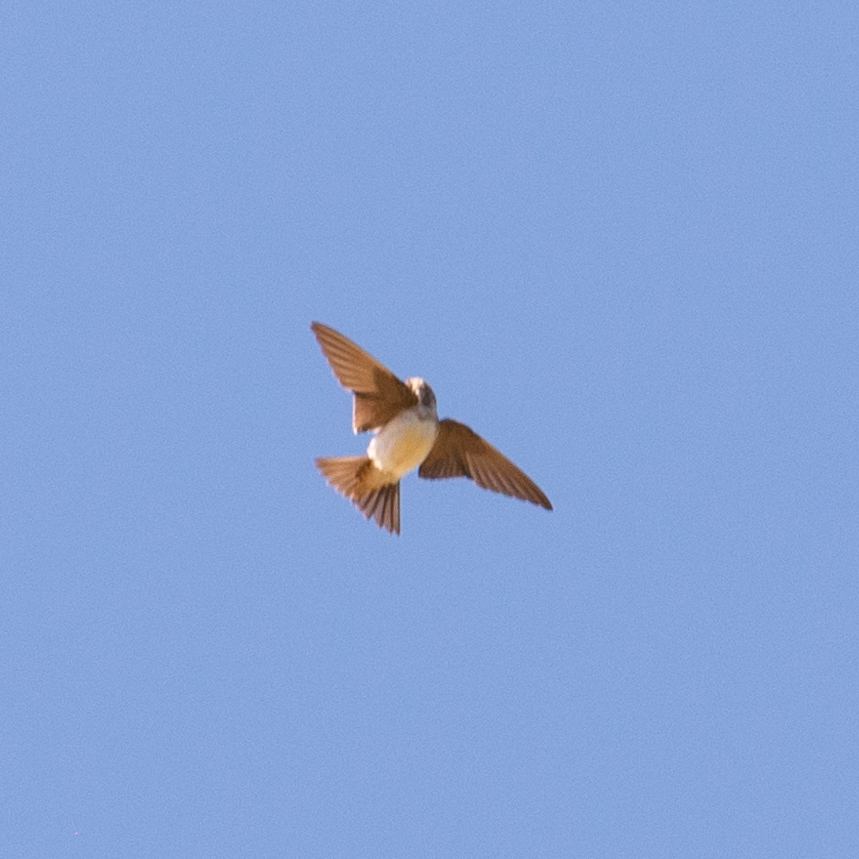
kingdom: Animalia
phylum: Chordata
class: Aves
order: Passeriformes
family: Hirundinidae
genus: Delichon
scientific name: Delichon urbicum
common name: Common house martin
